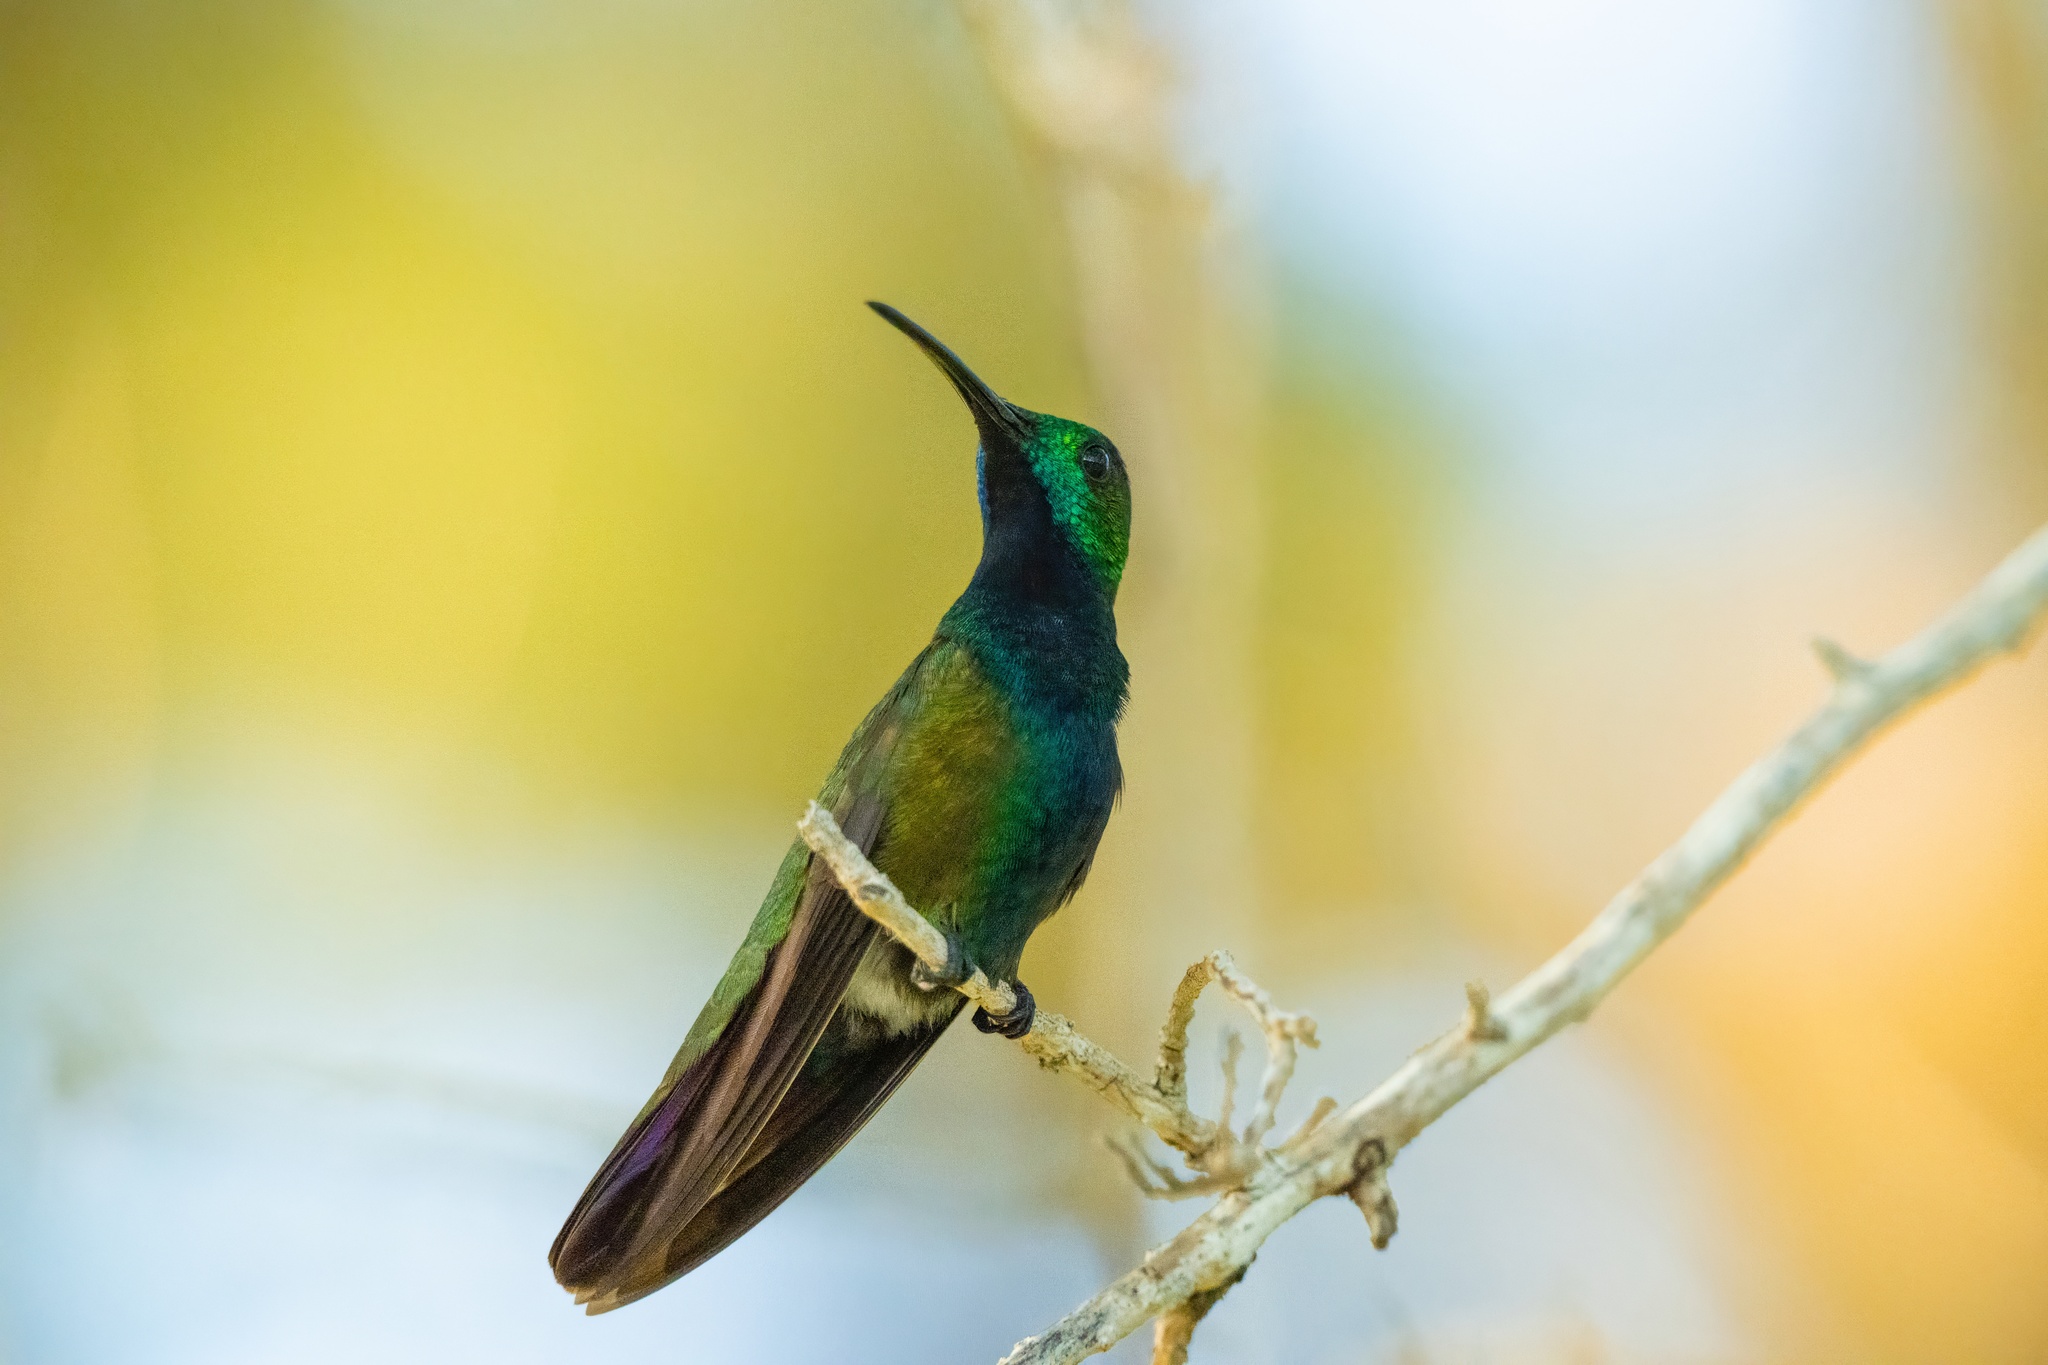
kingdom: Animalia
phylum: Chordata
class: Aves
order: Apodiformes
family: Trochilidae
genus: Anthracothorax
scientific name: Anthracothorax prevostii
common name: Green-breasted mango
